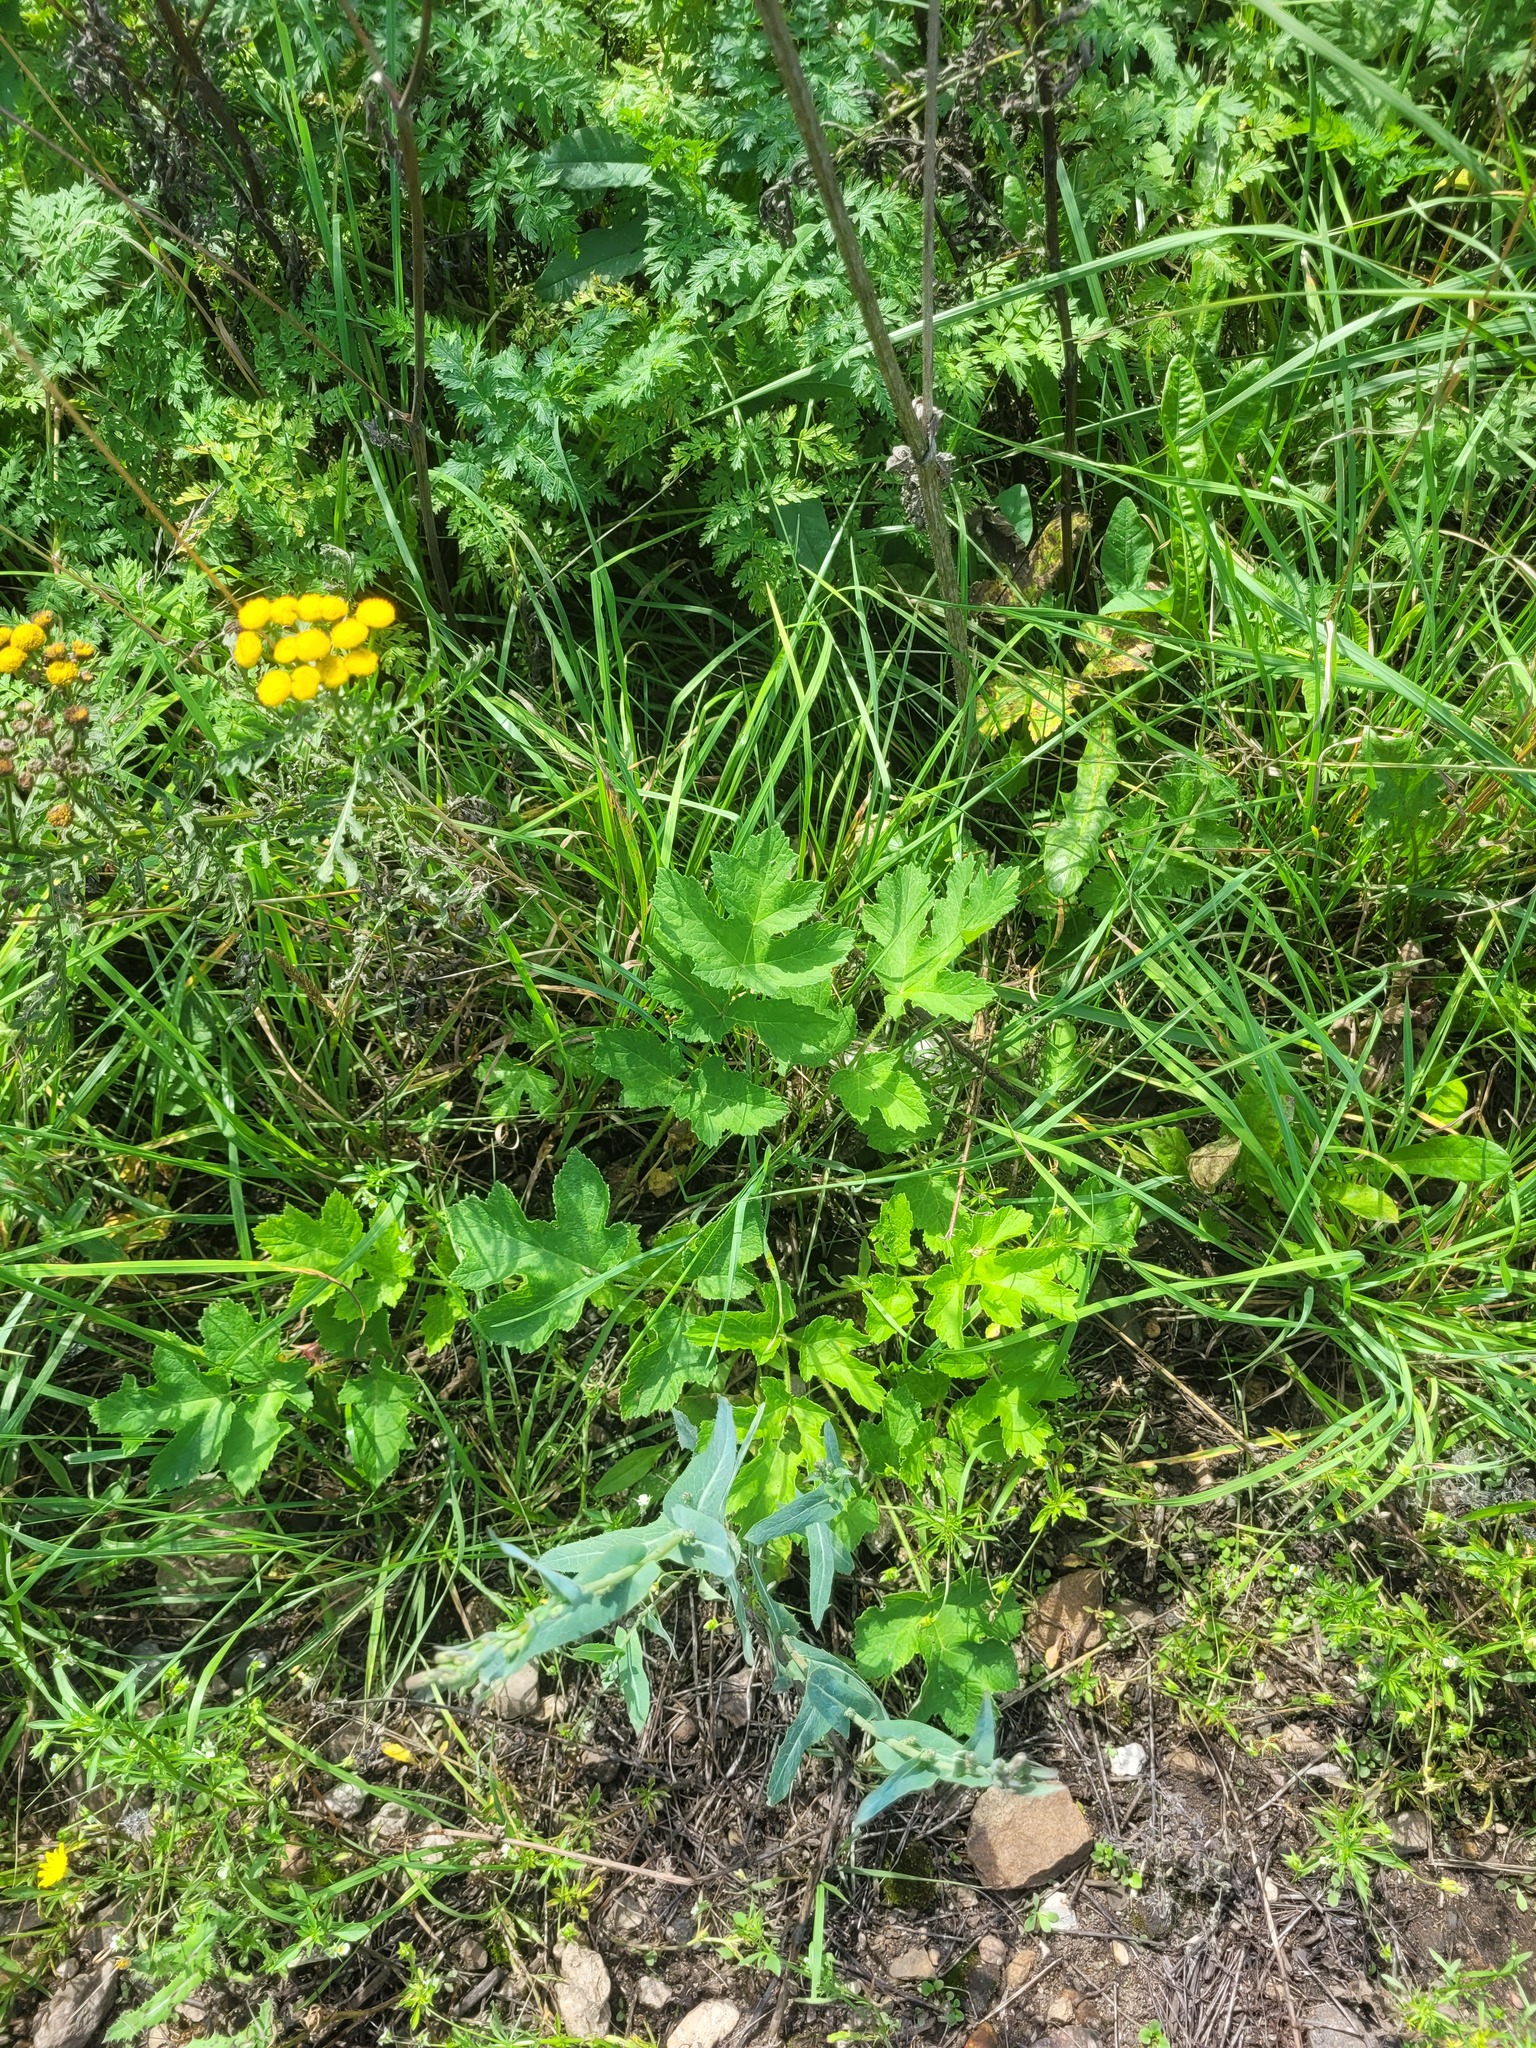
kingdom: Plantae
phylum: Tracheophyta
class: Magnoliopsida
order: Apiales
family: Apiaceae
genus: Heracleum
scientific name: Heracleum sphondylium
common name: Hogweed
